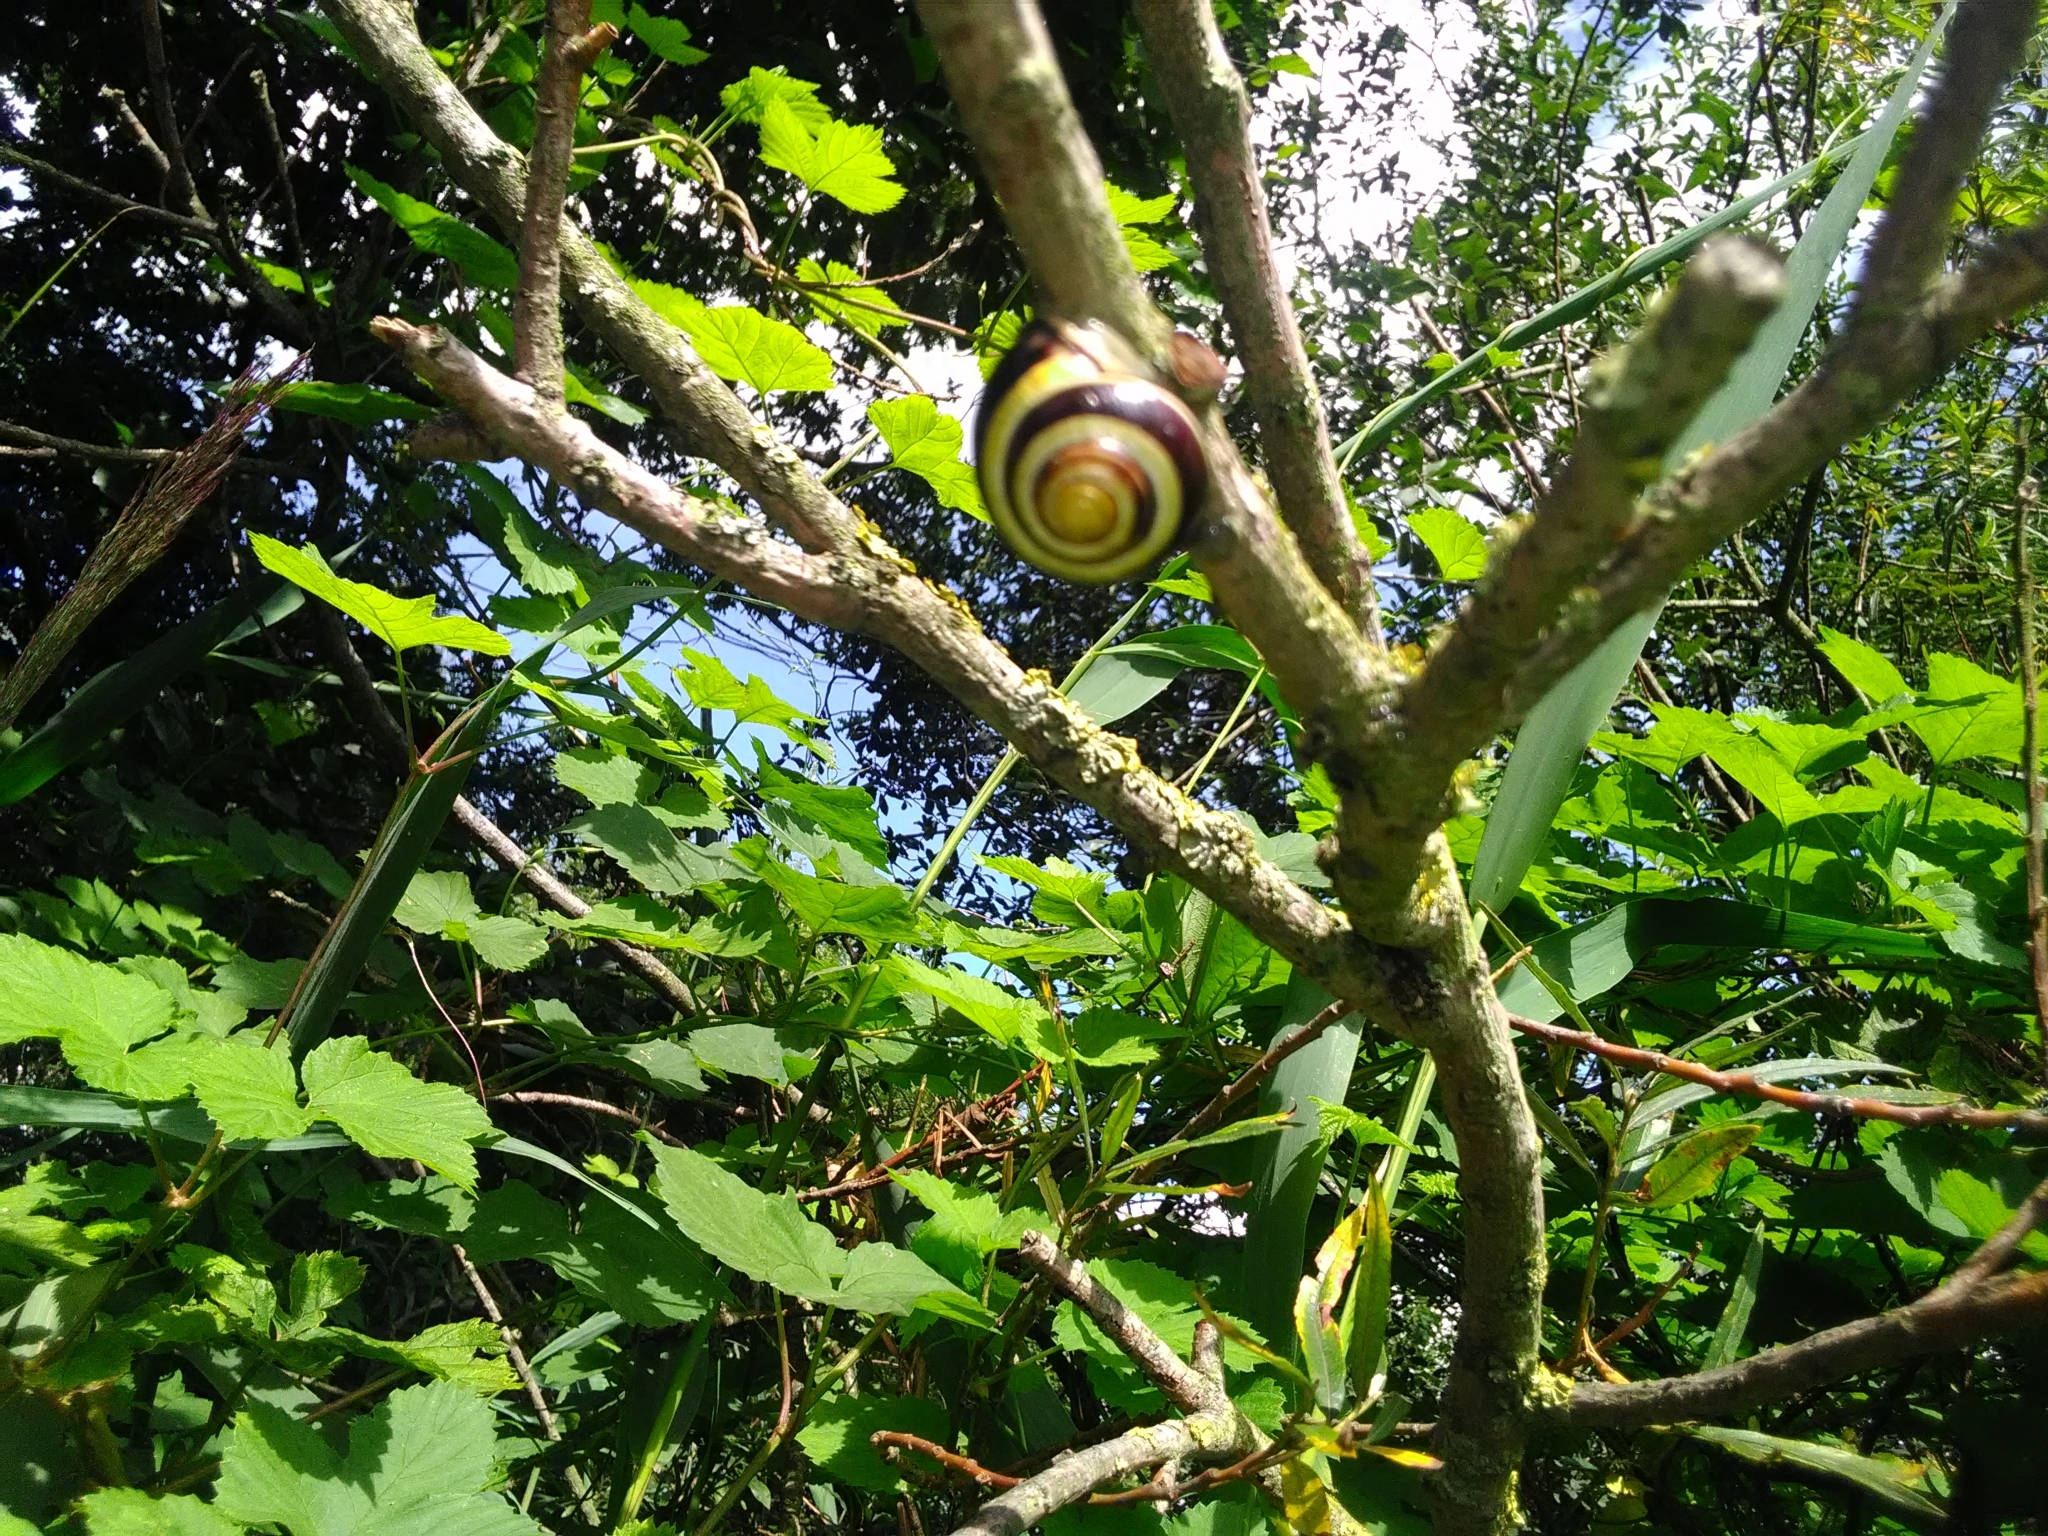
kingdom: Animalia
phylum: Mollusca
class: Gastropoda
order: Stylommatophora
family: Helicidae
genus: Cepaea
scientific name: Cepaea nemoralis
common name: Grovesnail
